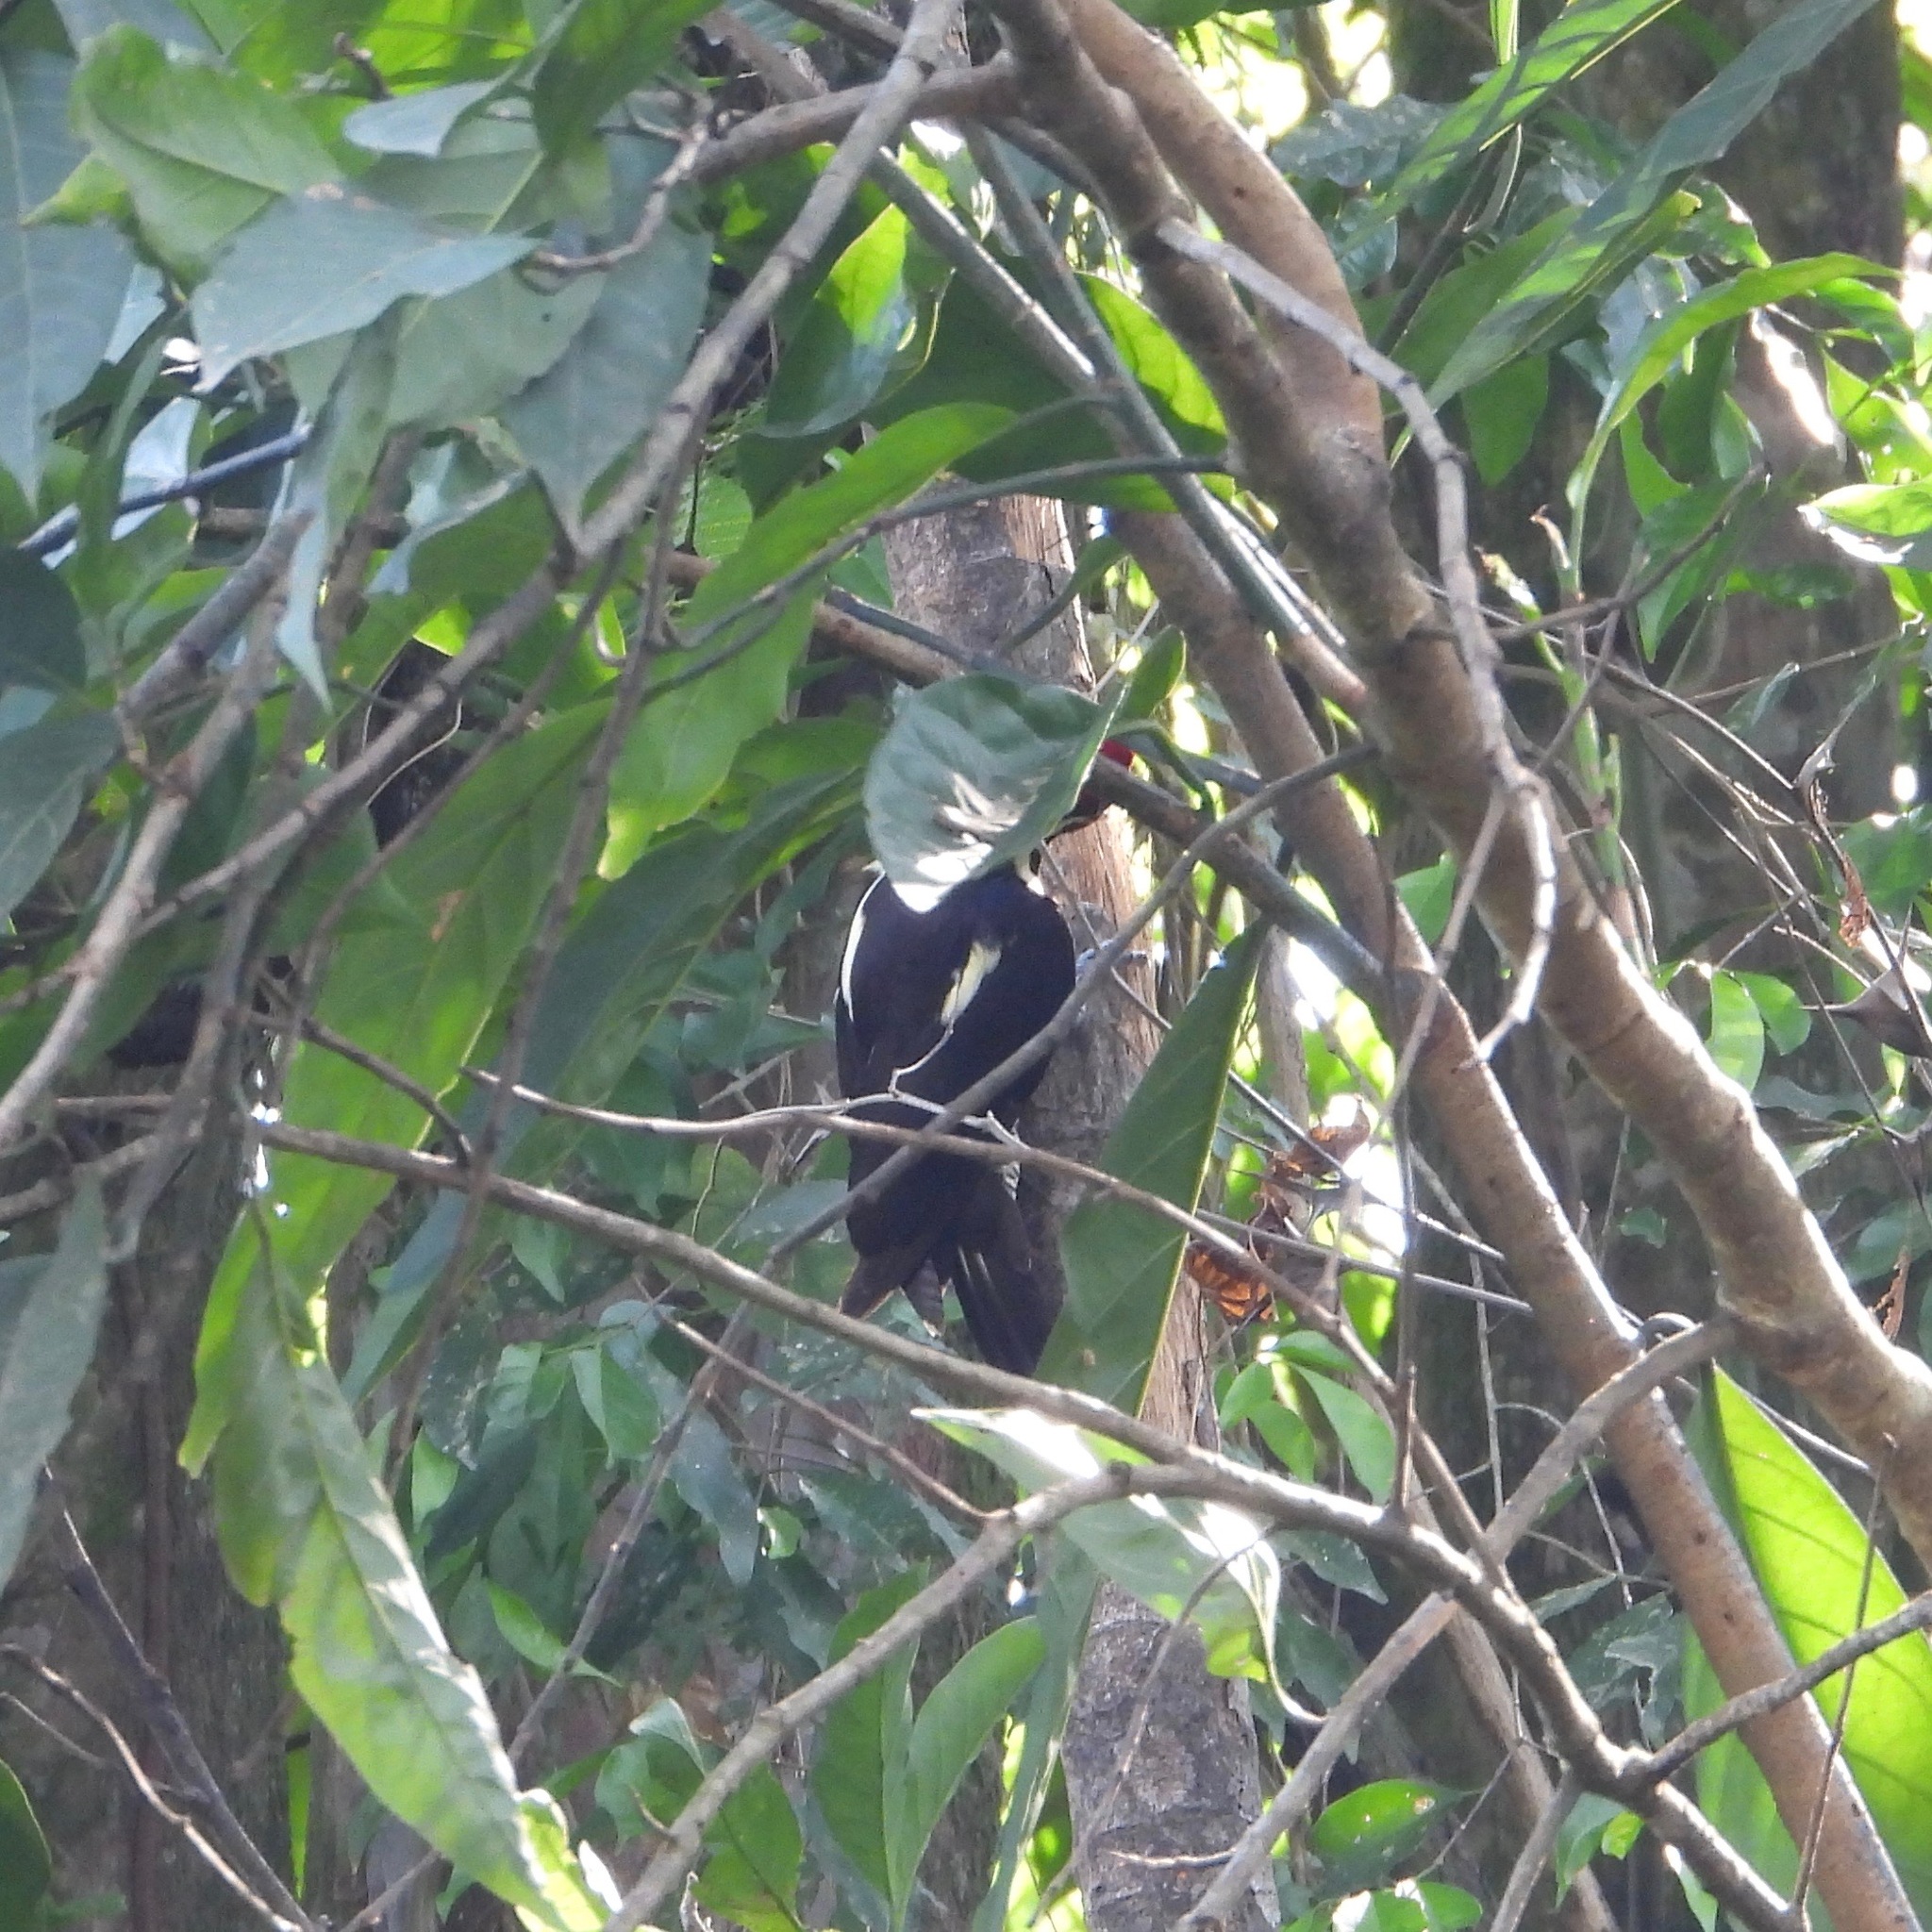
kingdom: Animalia
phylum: Chordata
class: Aves
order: Piciformes
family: Picidae
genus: Dryocopus
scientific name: Dryocopus lineatus
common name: Lineated woodpecker
